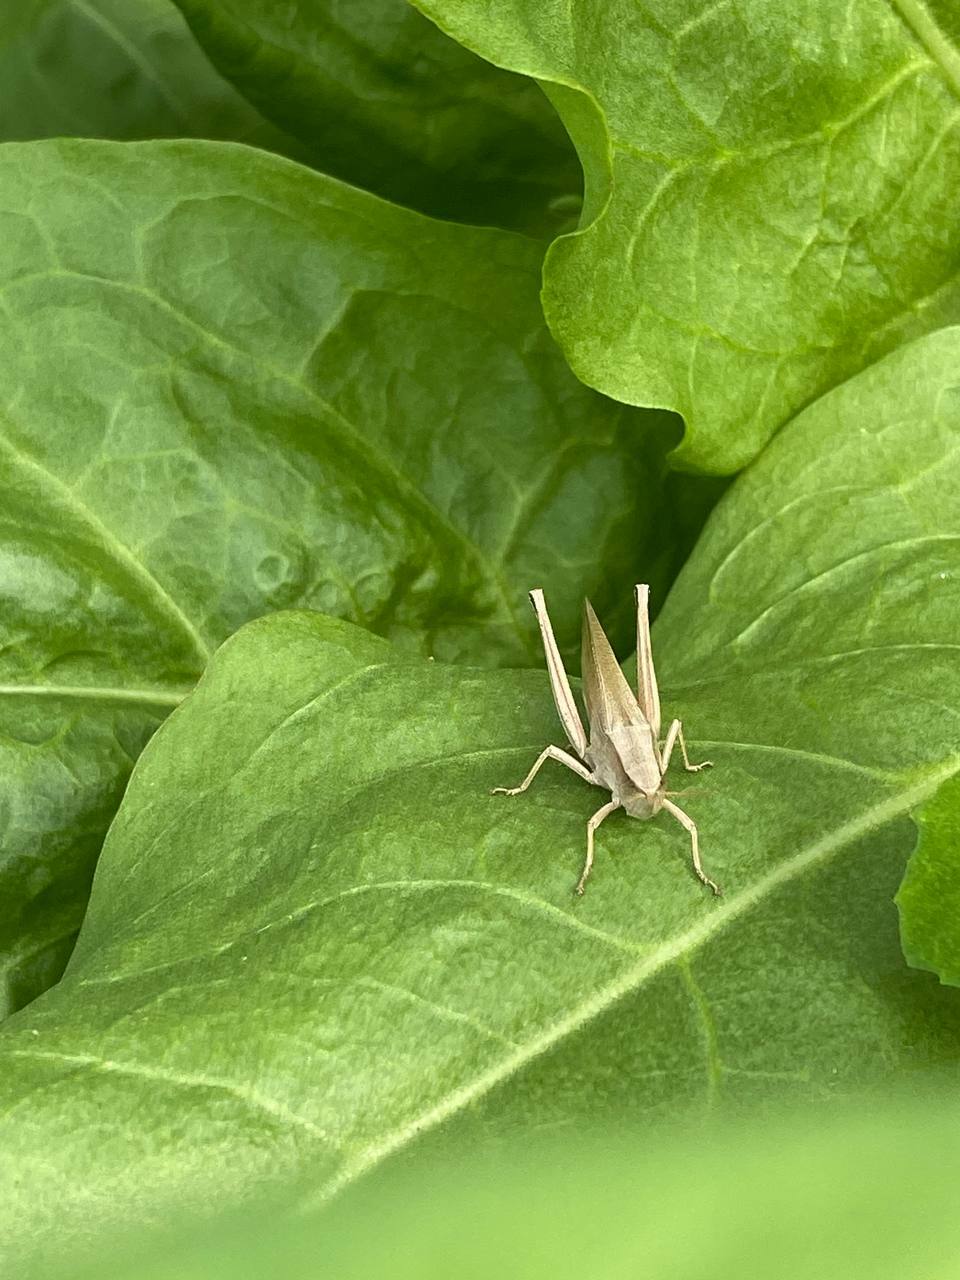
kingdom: Animalia
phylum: Arthropoda
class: Insecta
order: Orthoptera
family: Acrididae
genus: Chrysochraon
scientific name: Chrysochraon dispar
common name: Large gold grasshopper
